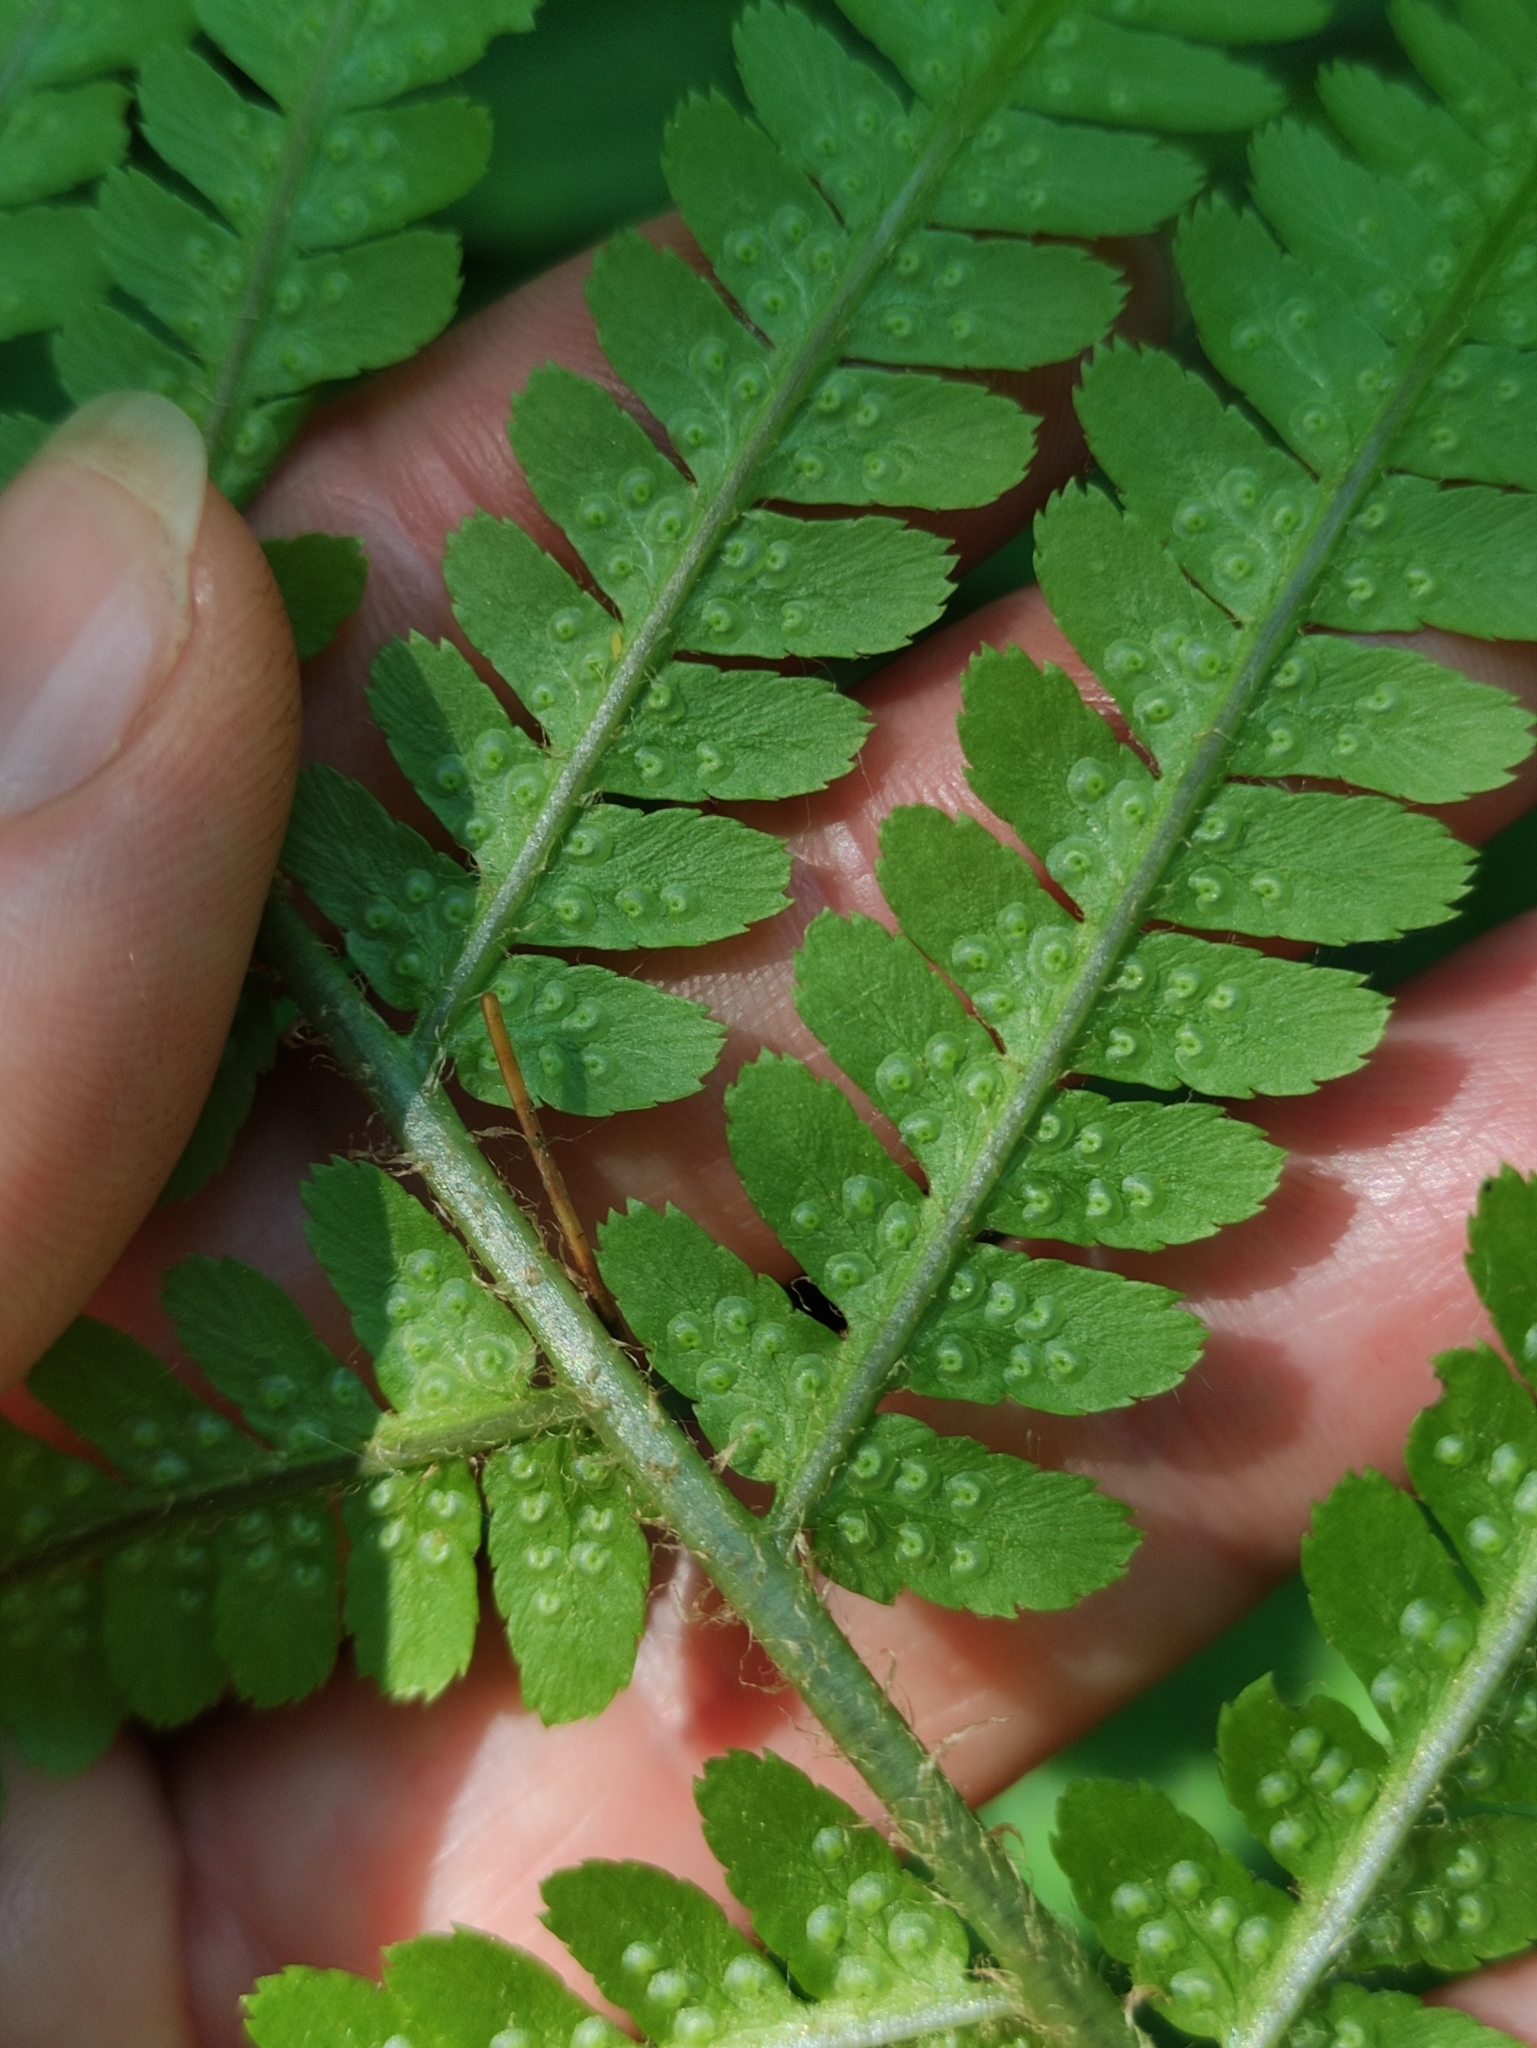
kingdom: Plantae
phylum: Tracheophyta
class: Polypodiopsida
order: Polypodiales
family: Dryopteridaceae
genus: Dryopteris
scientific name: Dryopteris filix-mas
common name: Male fern
